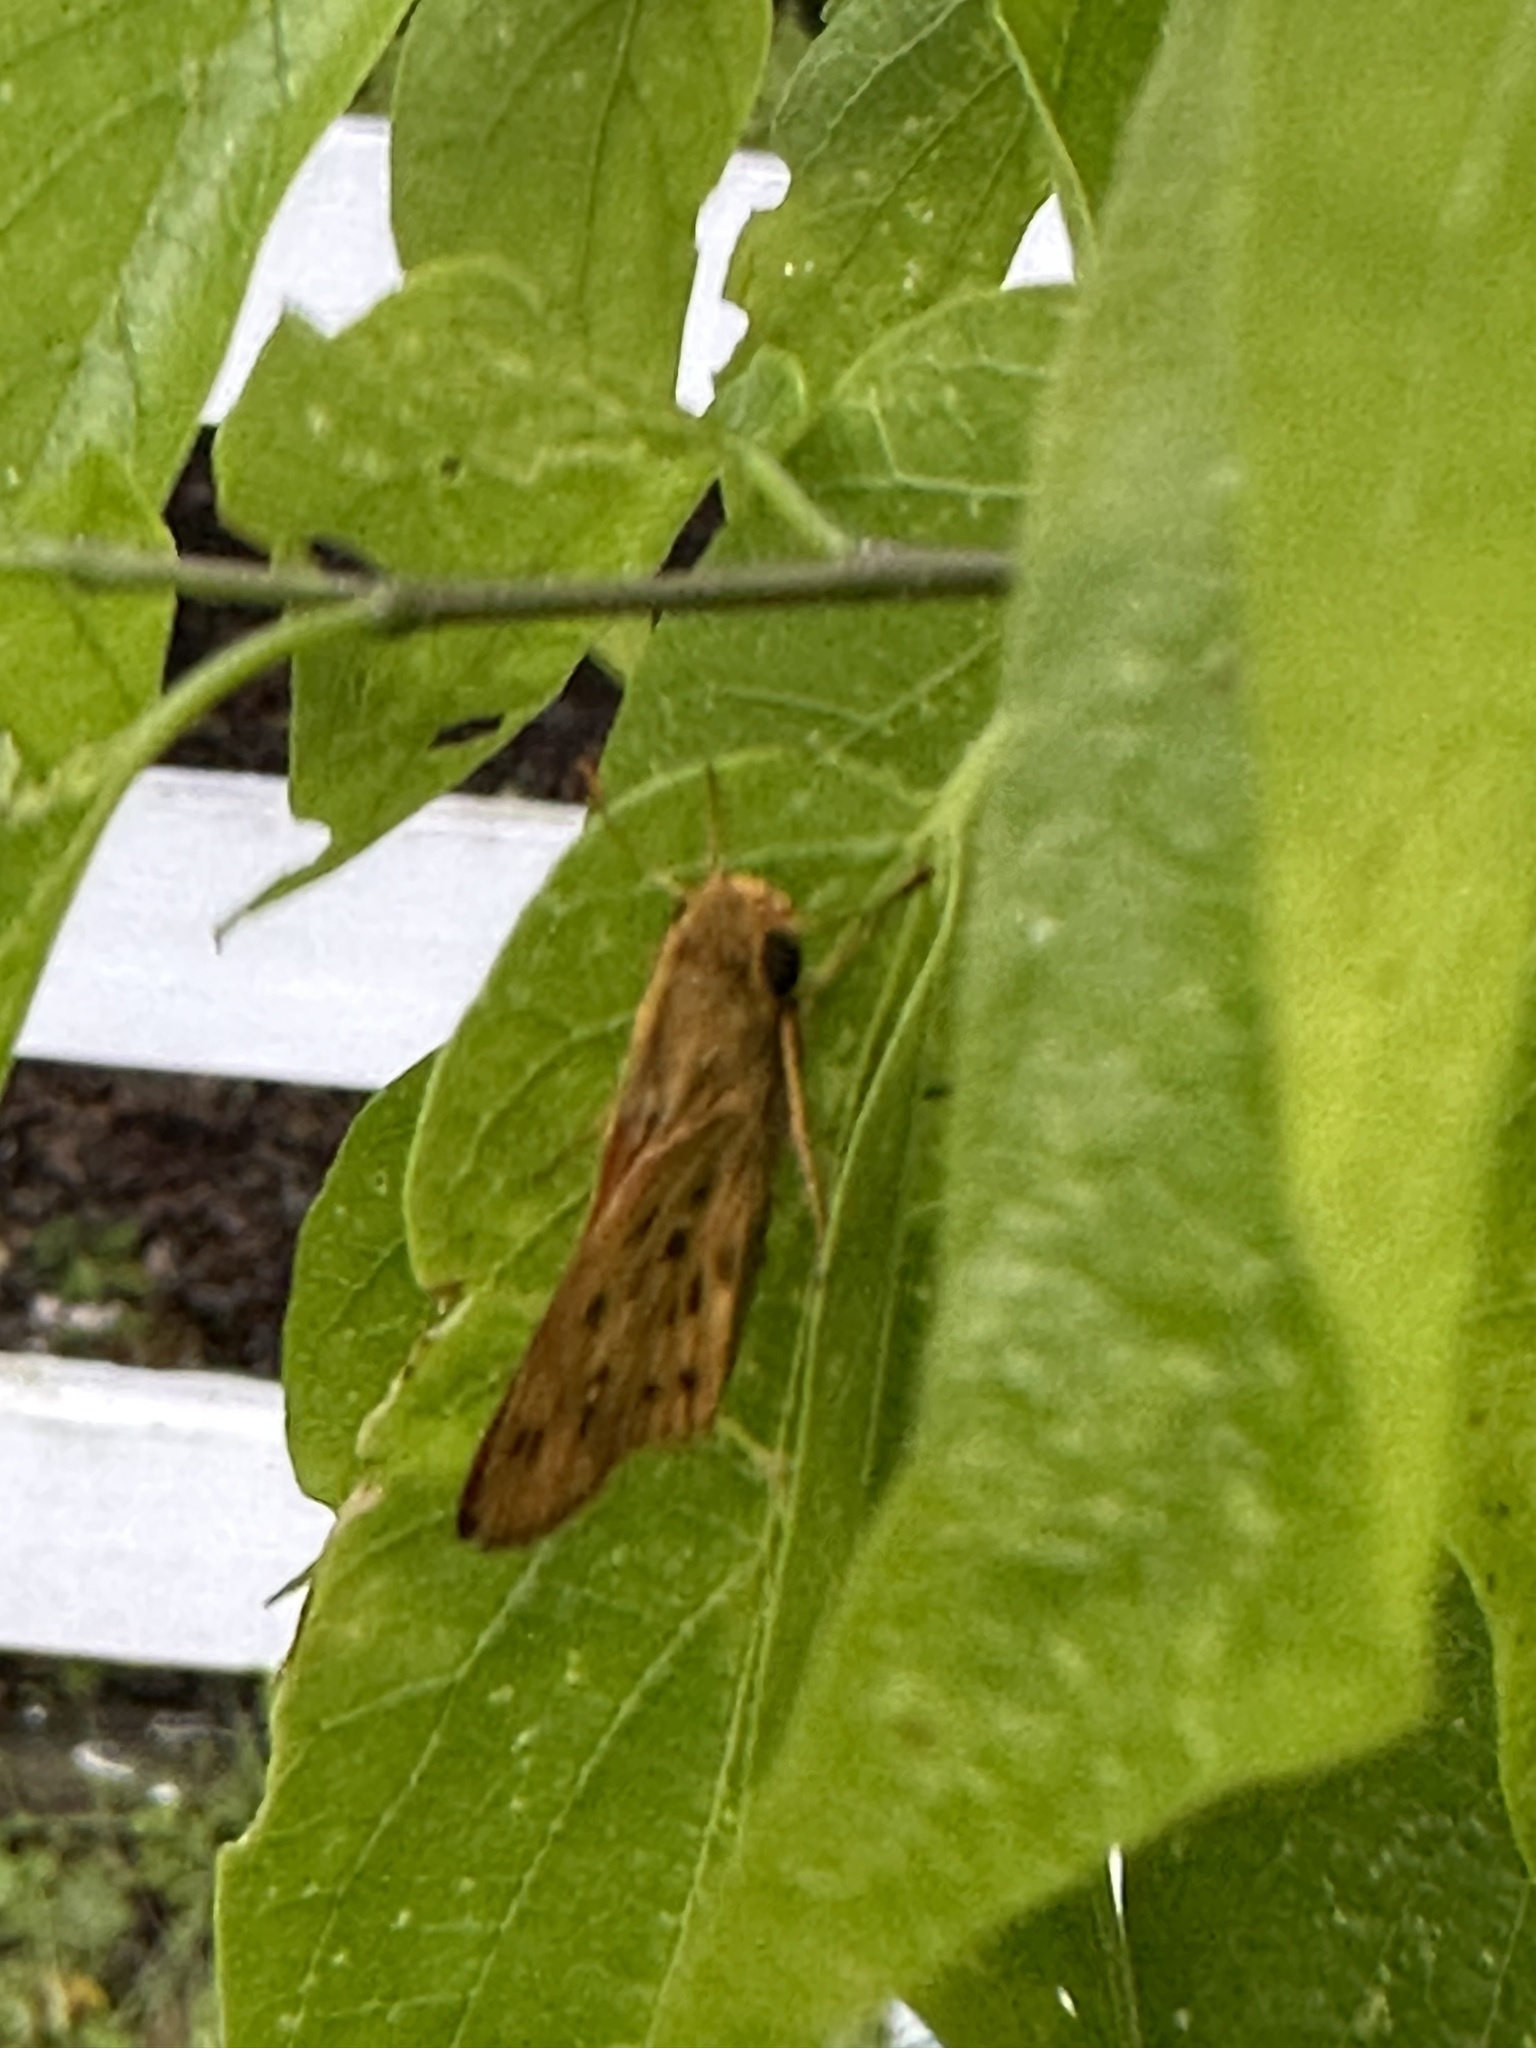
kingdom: Animalia
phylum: Arthropoda
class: Insecta
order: Lepidoptera
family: Hesperiidae
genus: Hylephila
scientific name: Hylephila phyleus
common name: Fiery skipper
